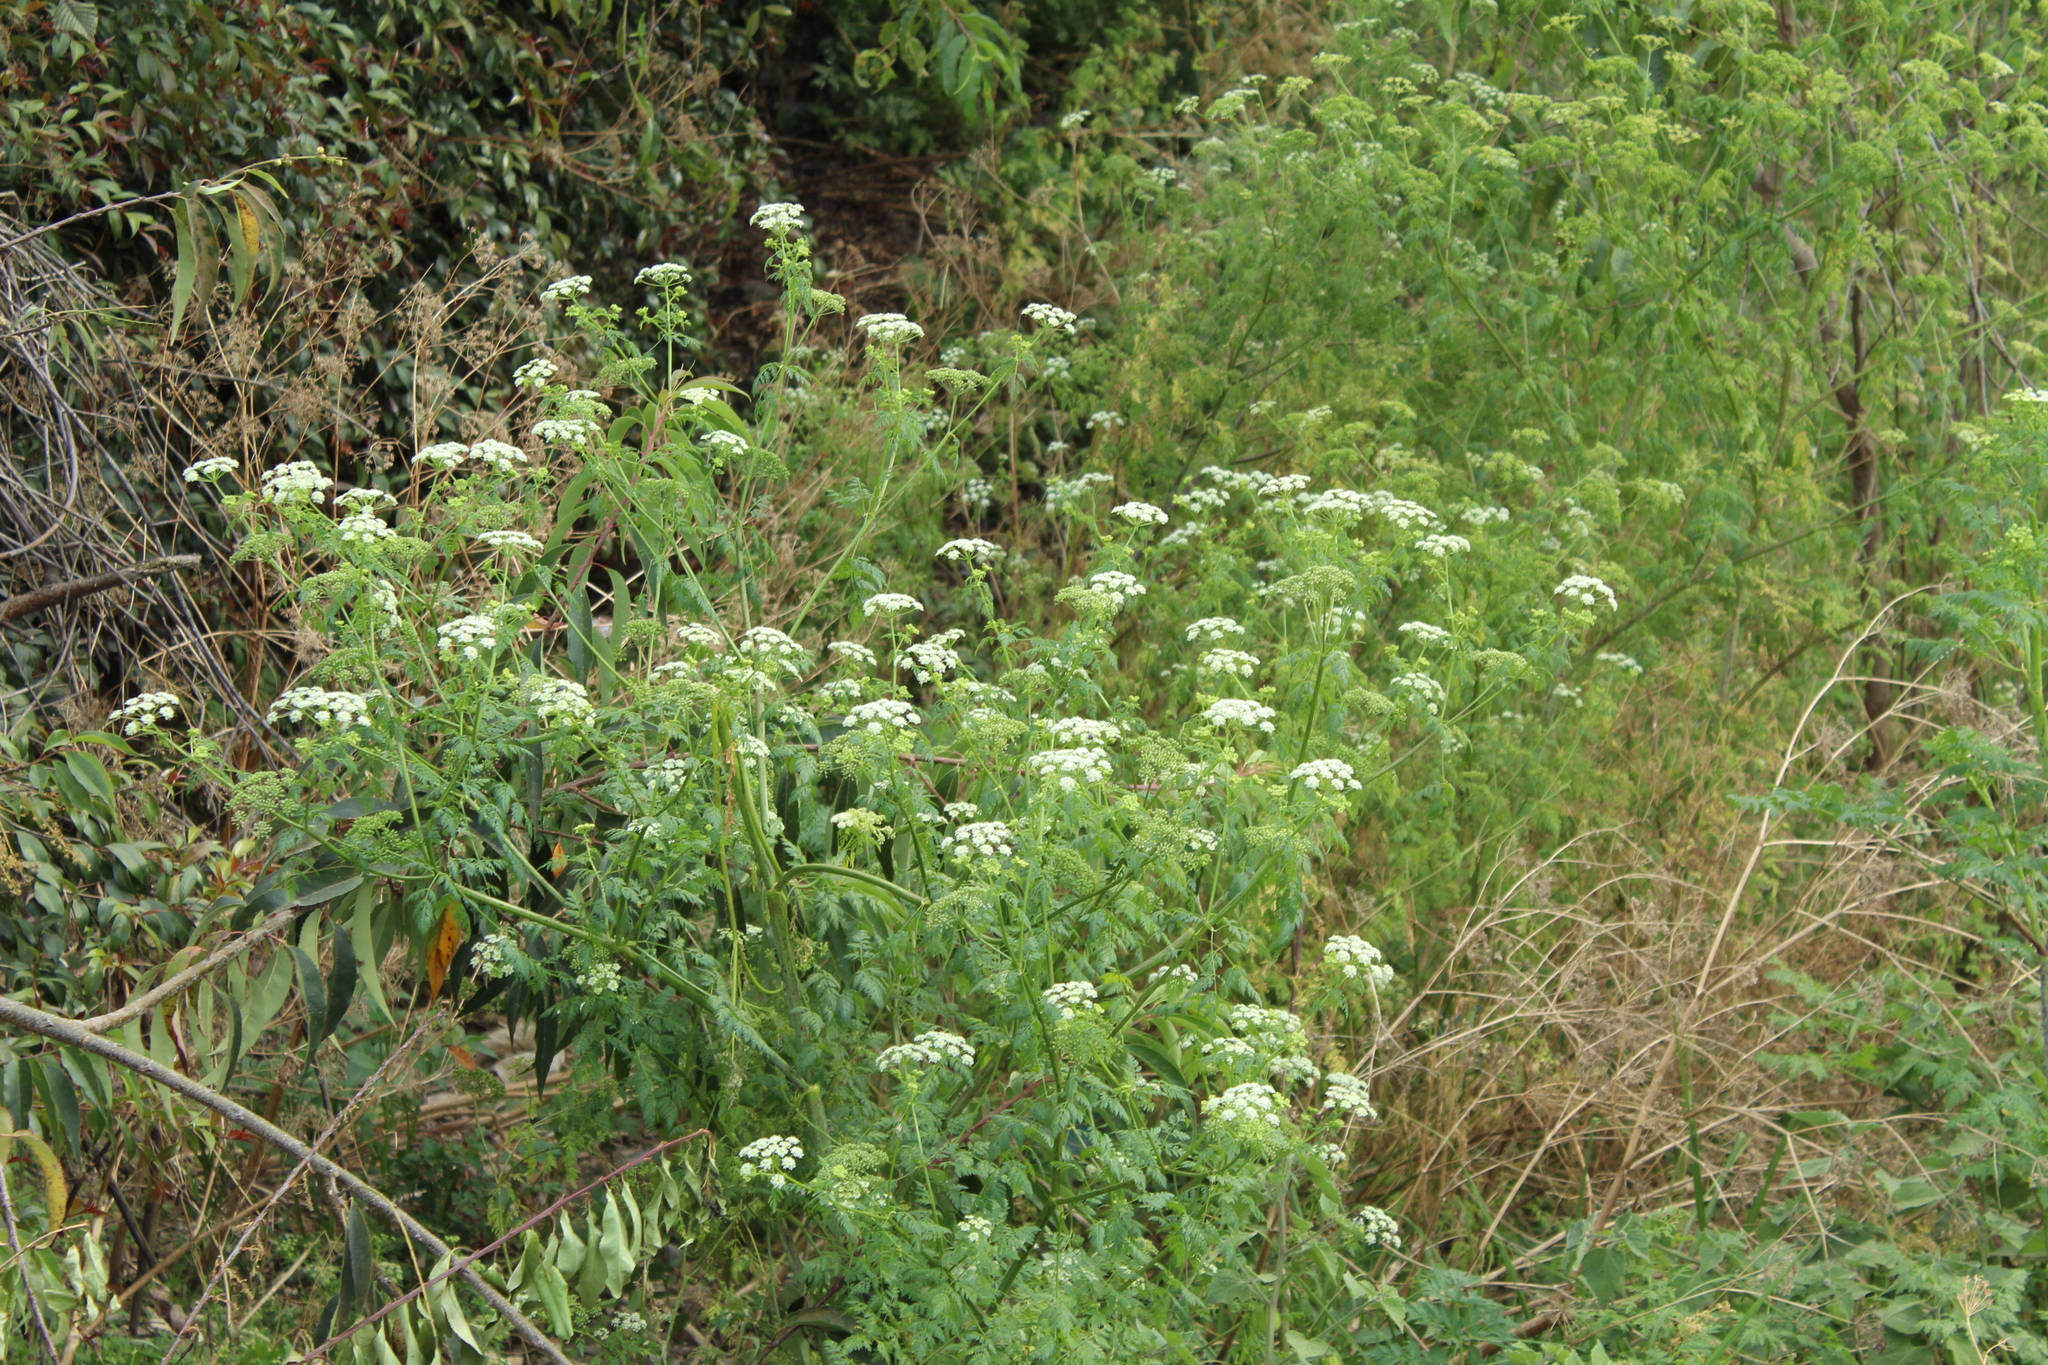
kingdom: Plantae
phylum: Tracheophyta
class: Magnoliopsida
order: Apiales
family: Apiaceae
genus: Conium
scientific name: Conium maculatum
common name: Hemlock
